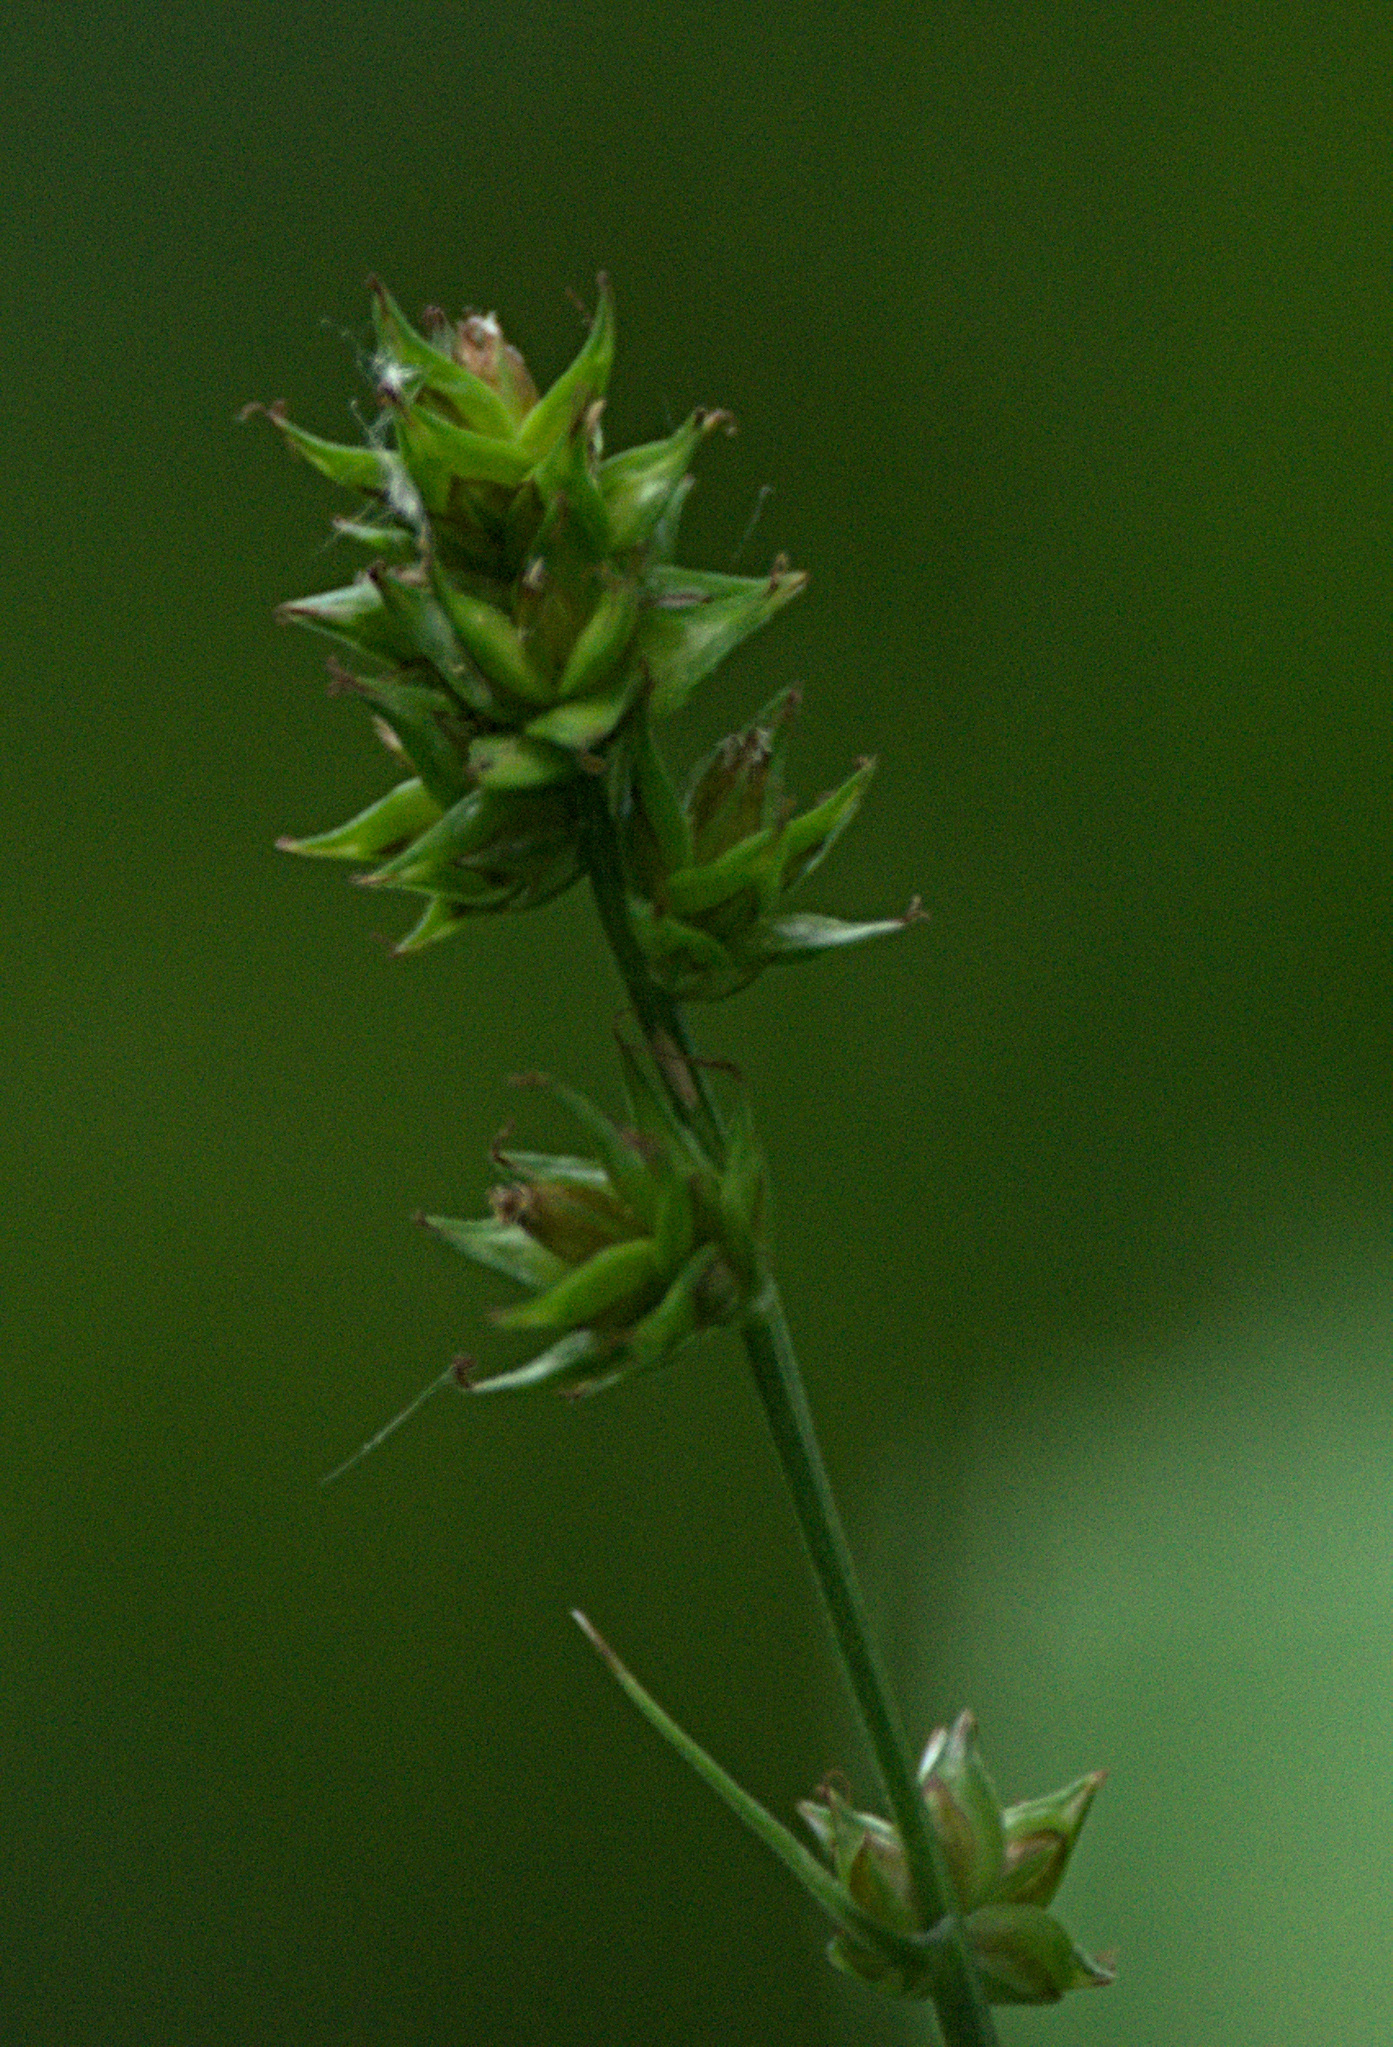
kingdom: Plantae
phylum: Tracheophyta
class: Liliopsida
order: Poales
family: Cyperaceae
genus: Carex
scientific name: Carex muricata
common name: Rough sedge
